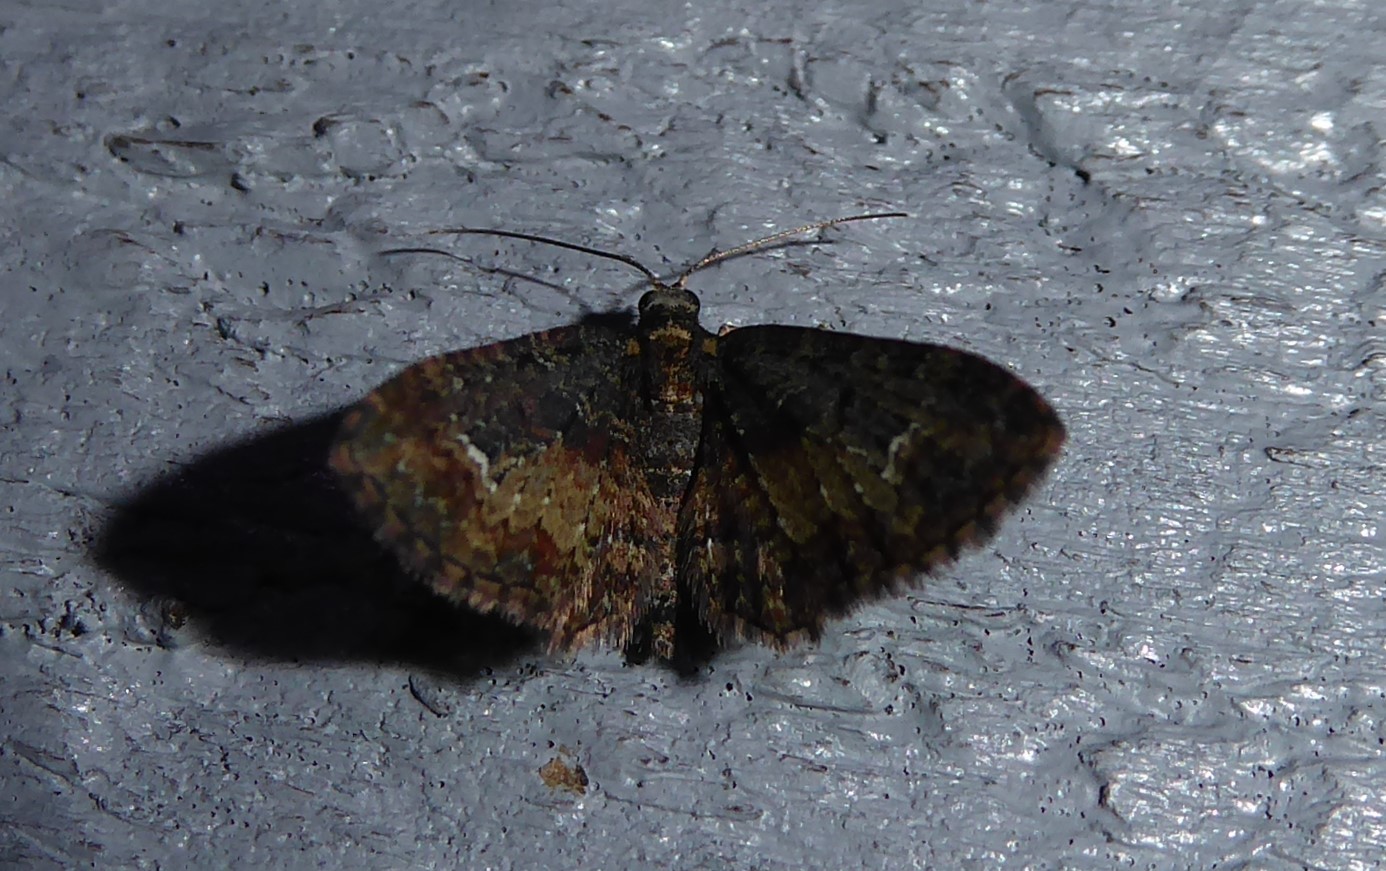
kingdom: Animalia
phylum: Arthropoda
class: Insecta
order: Lepidoptera
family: Geometridae
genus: Pasiphilodes
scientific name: Pasiphilodes testulata
